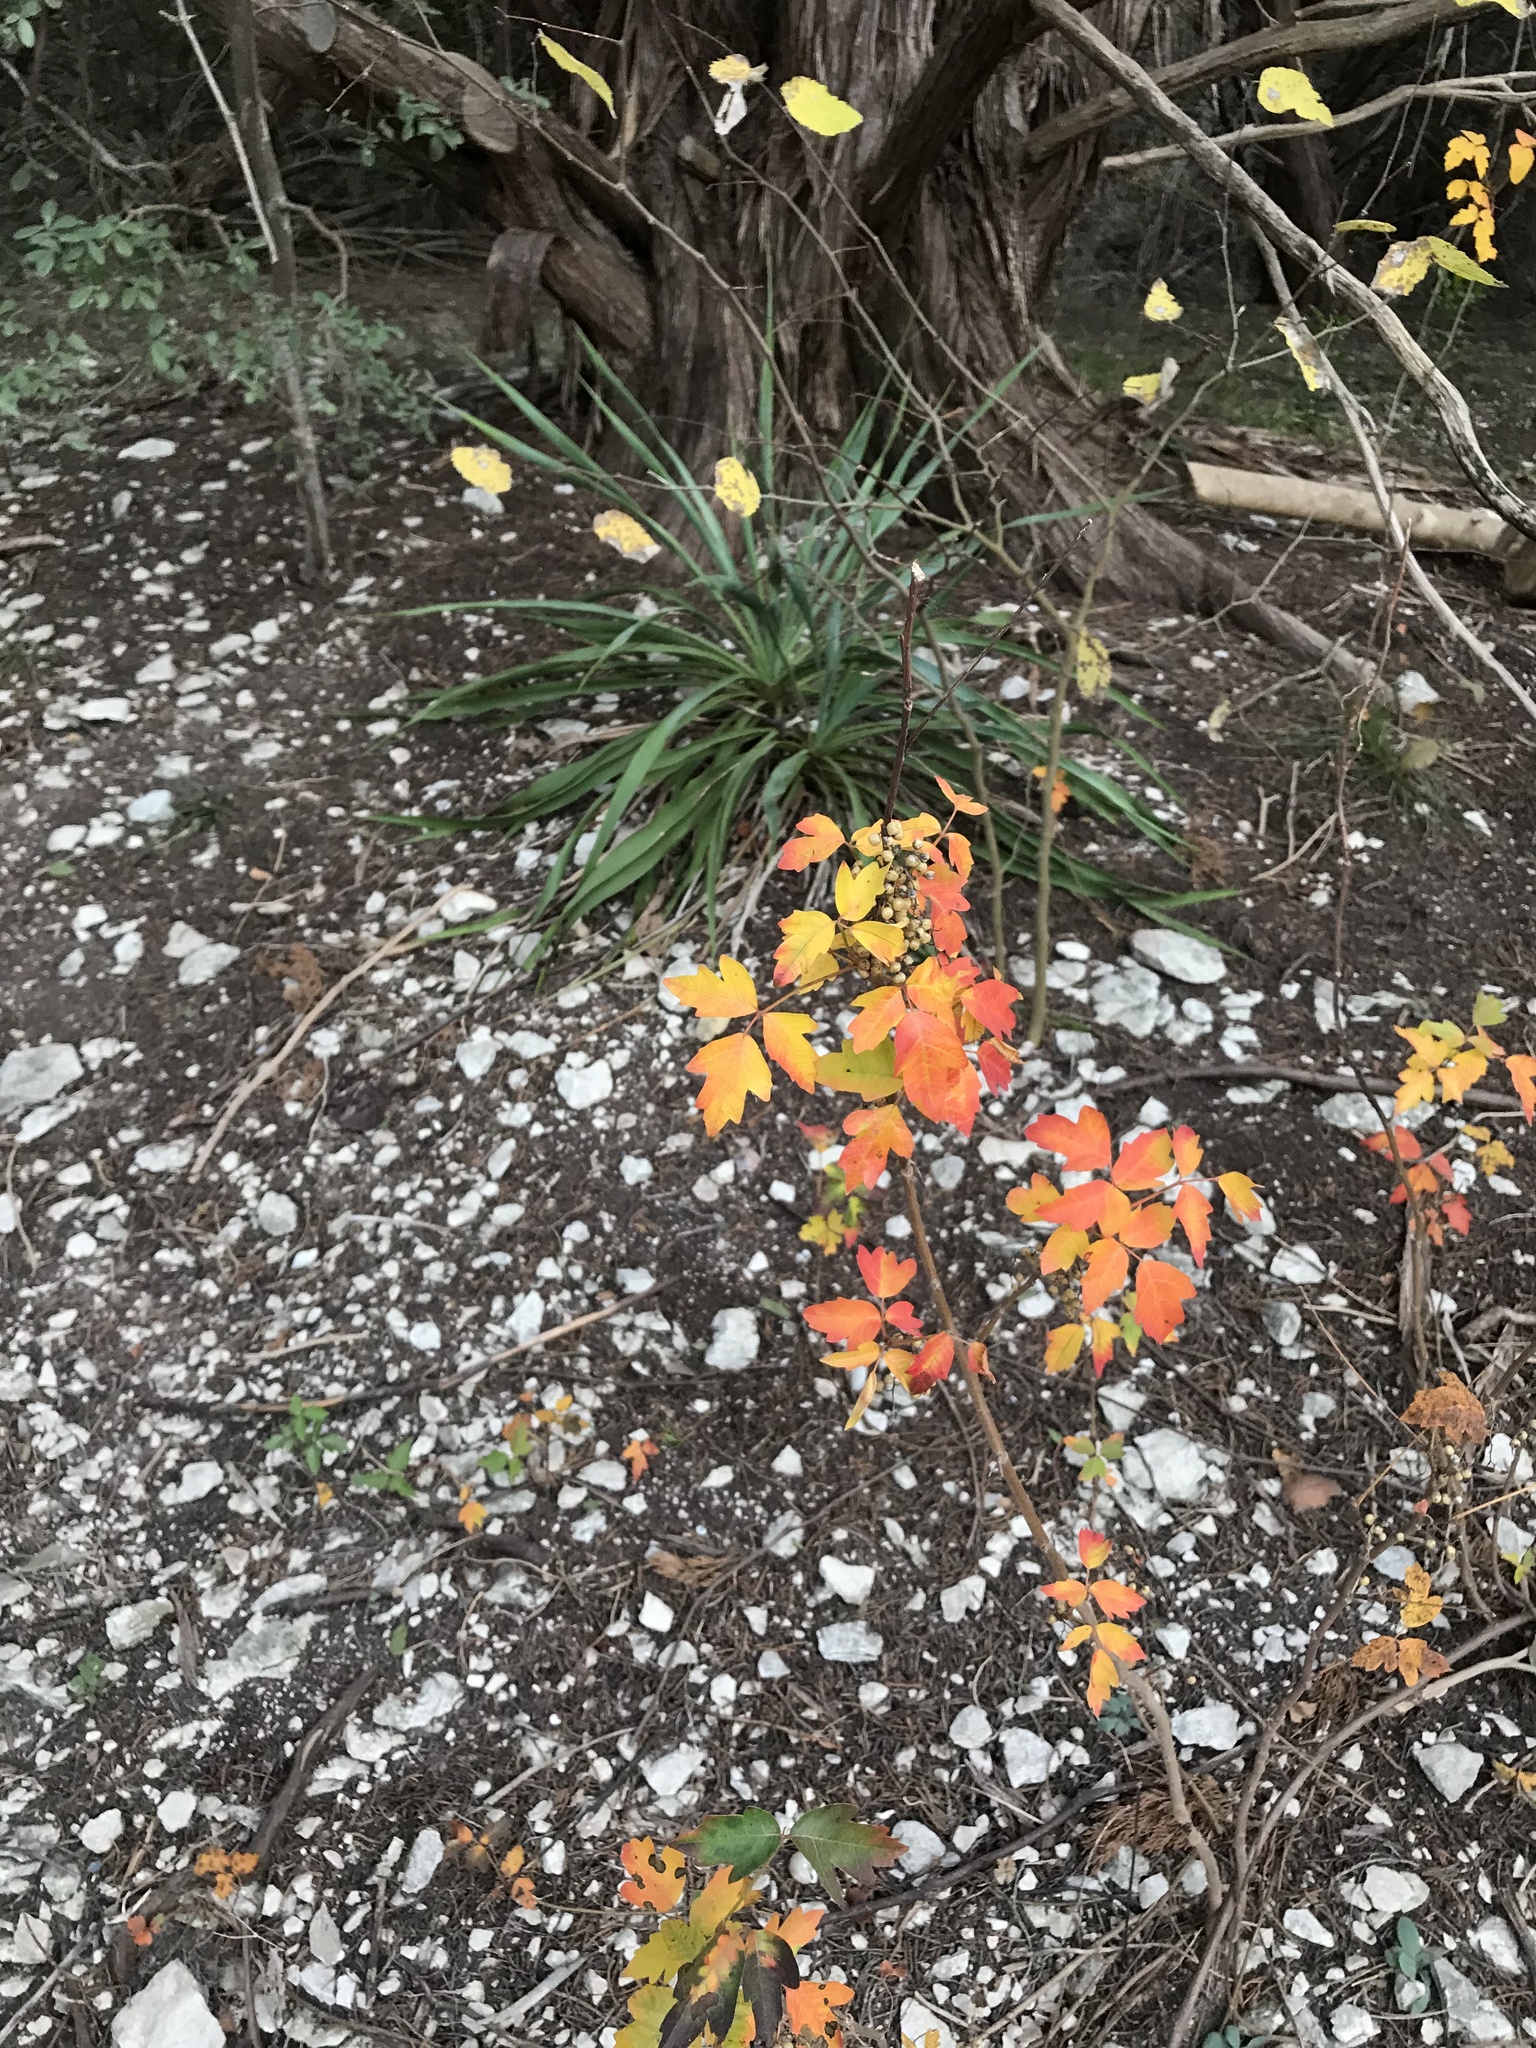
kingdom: Plantae
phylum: Tracheophyta
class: Magnoliopsida
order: Sapindales
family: Anacardiaceae
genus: Toxicodendron
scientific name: Toxicodendron radicans
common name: Poison ivy
